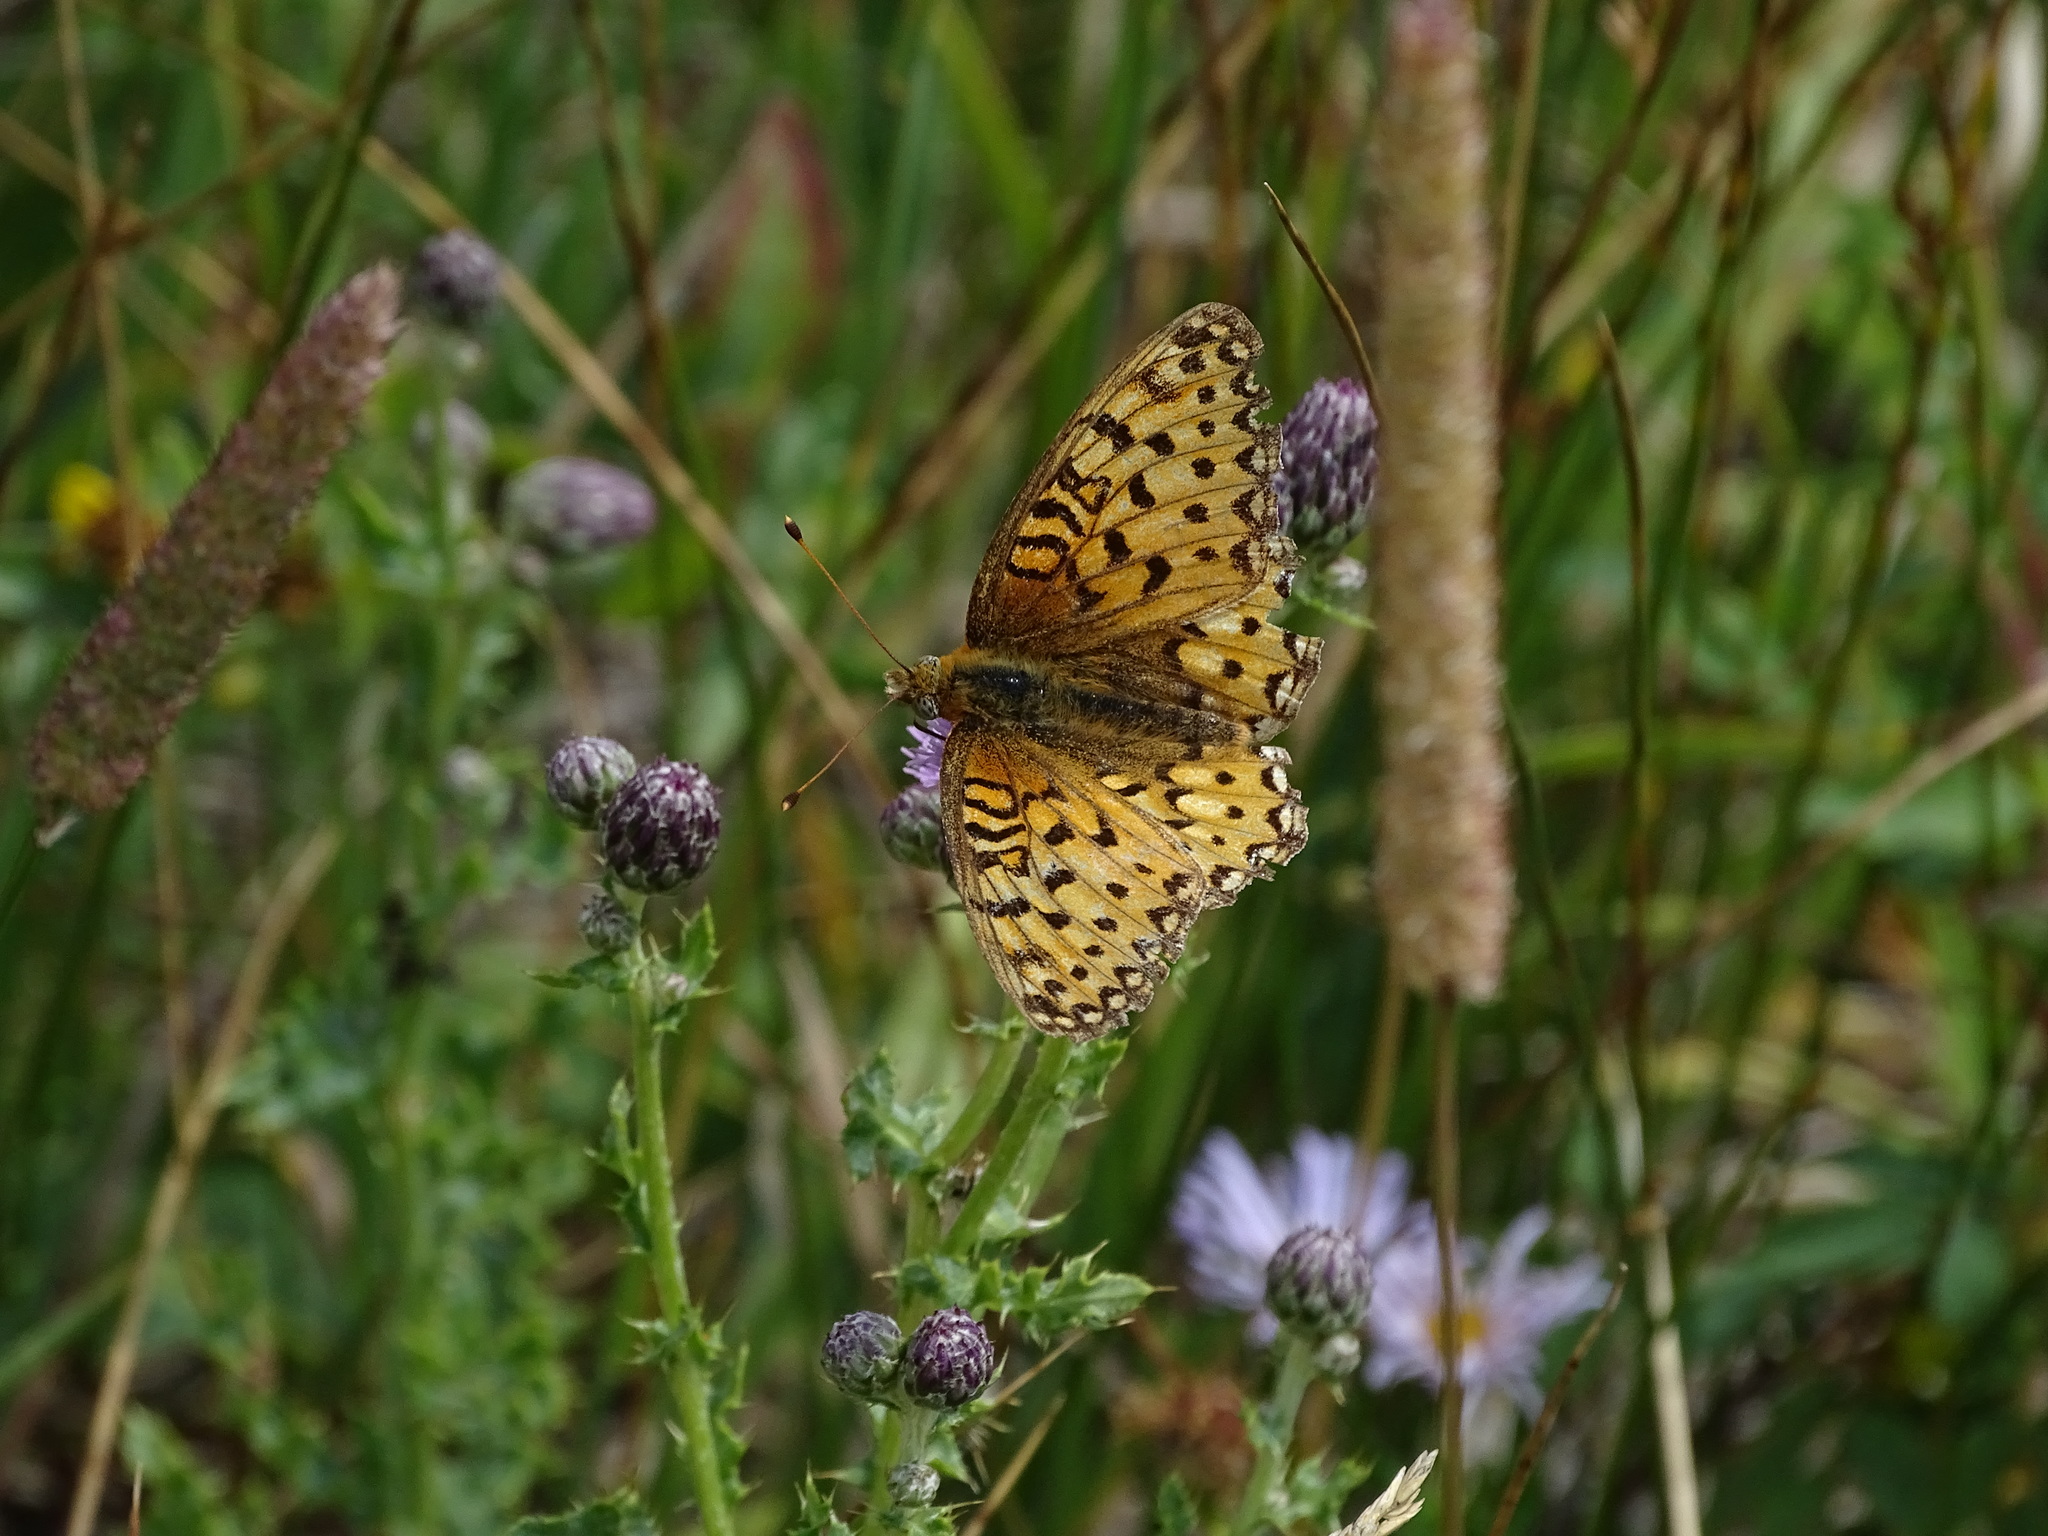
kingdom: Animalia
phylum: Arthropoda
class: Insecta
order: Lepidoptera
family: Nymphalidae
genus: Speyeria
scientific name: Speyeria mormonia
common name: Mormon fritillary
